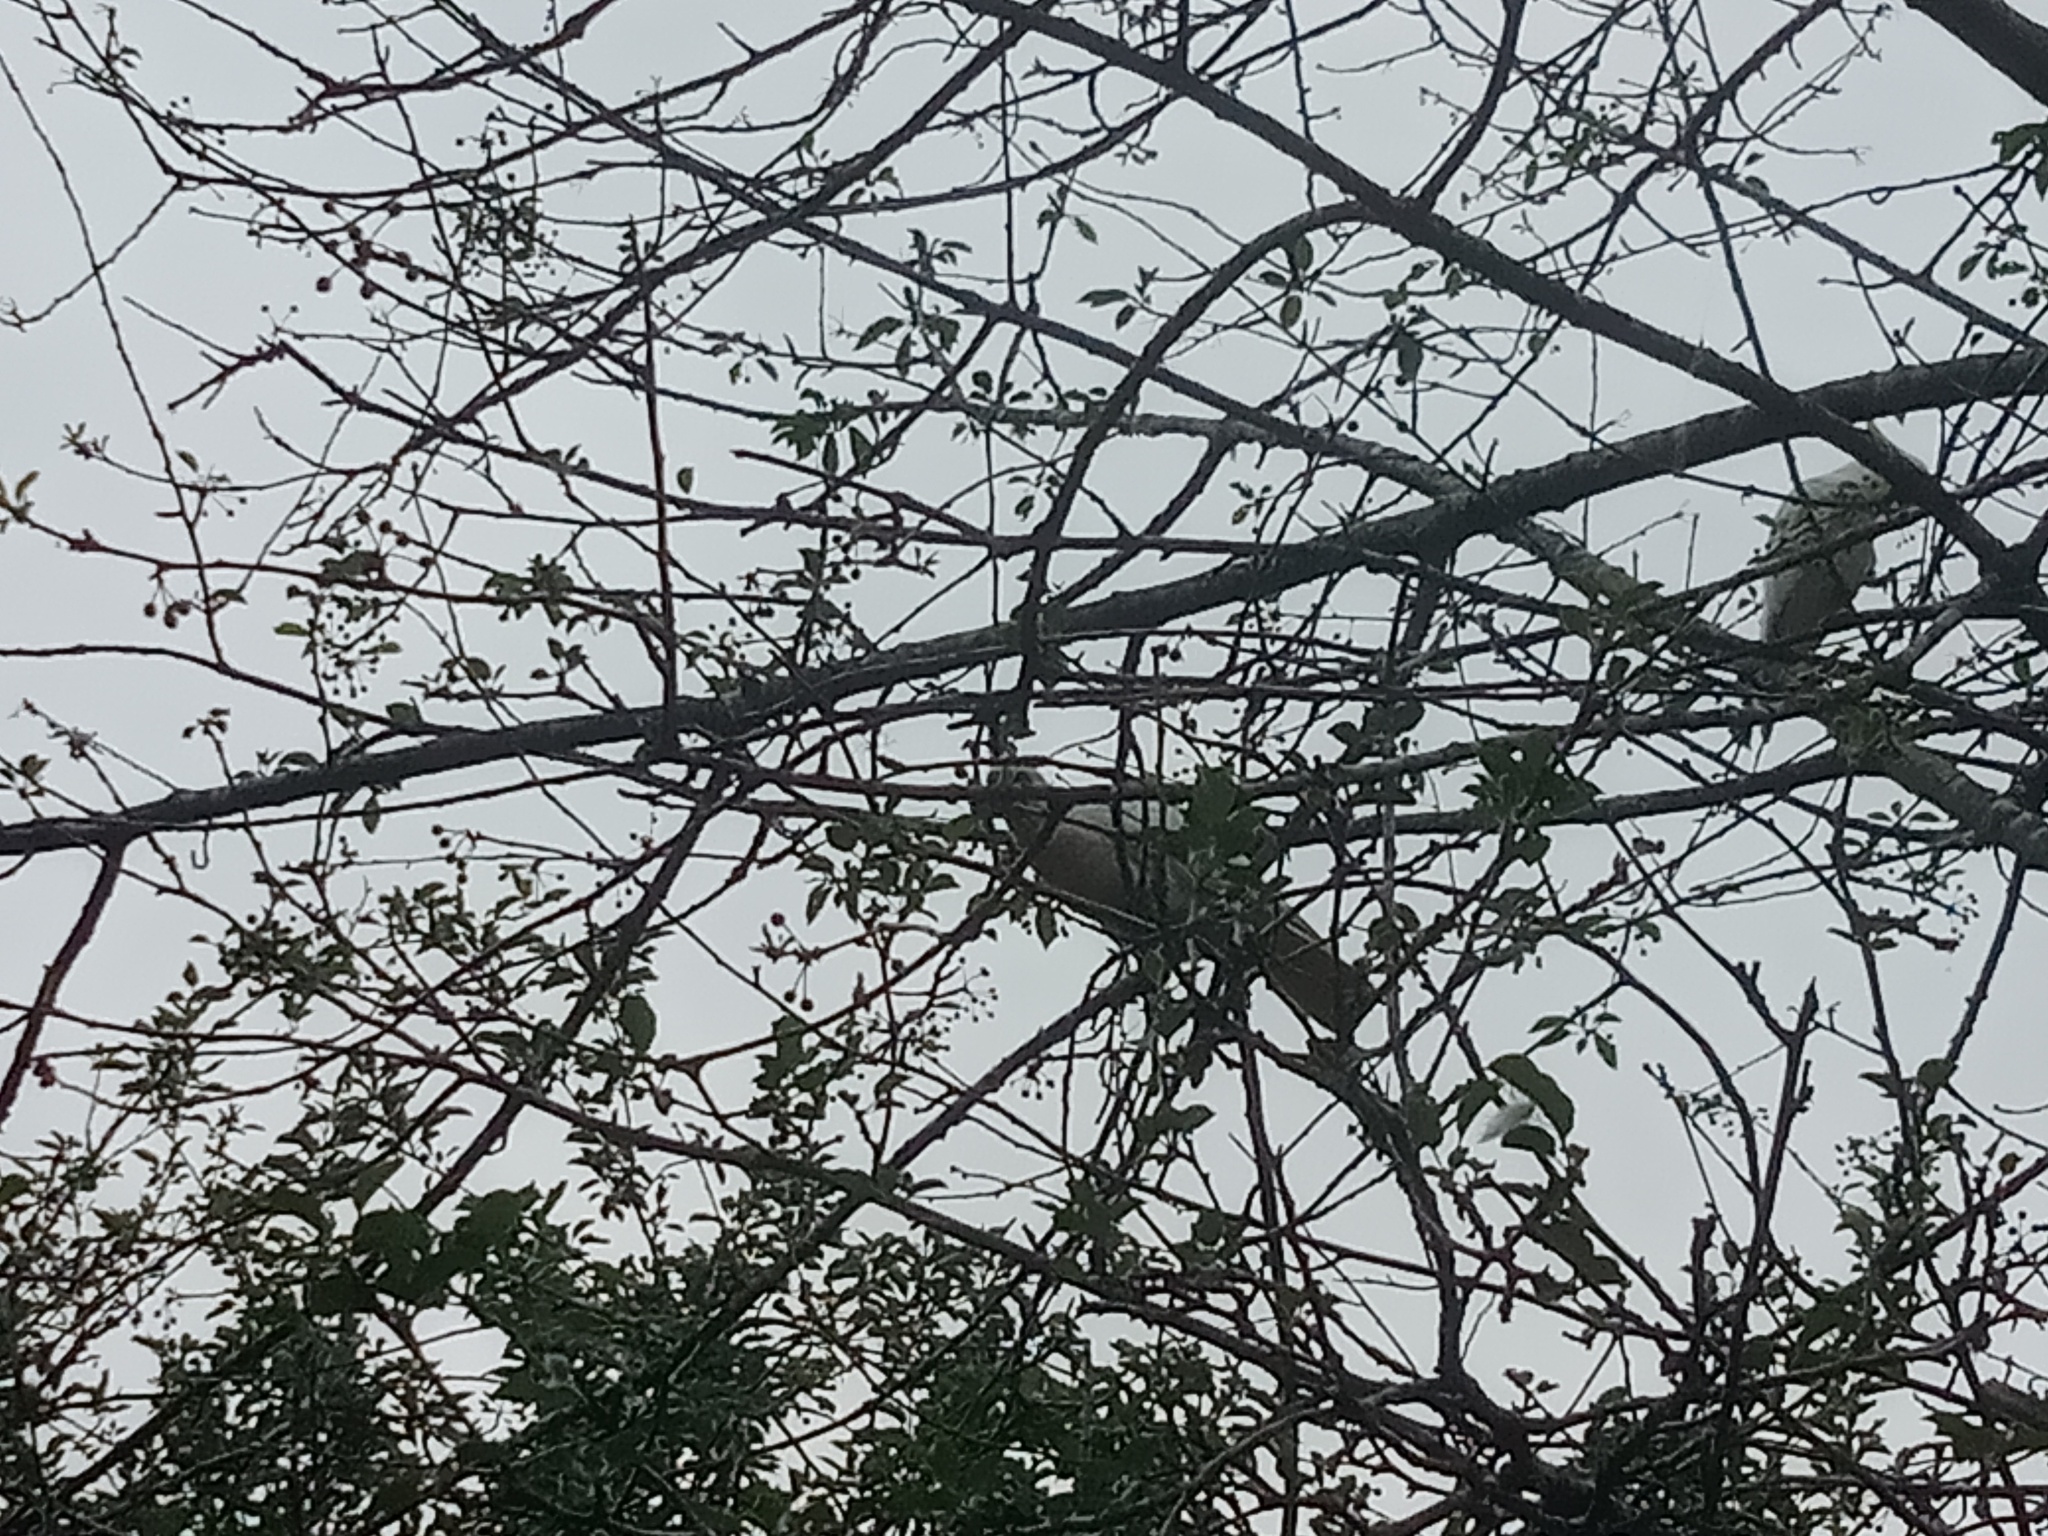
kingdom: Animalia
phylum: Chordata
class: Aves
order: Psittaciformes
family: Psittacidae
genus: Cacatua
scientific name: Cacatua galerita
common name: Sulphur-crested cockatoo
